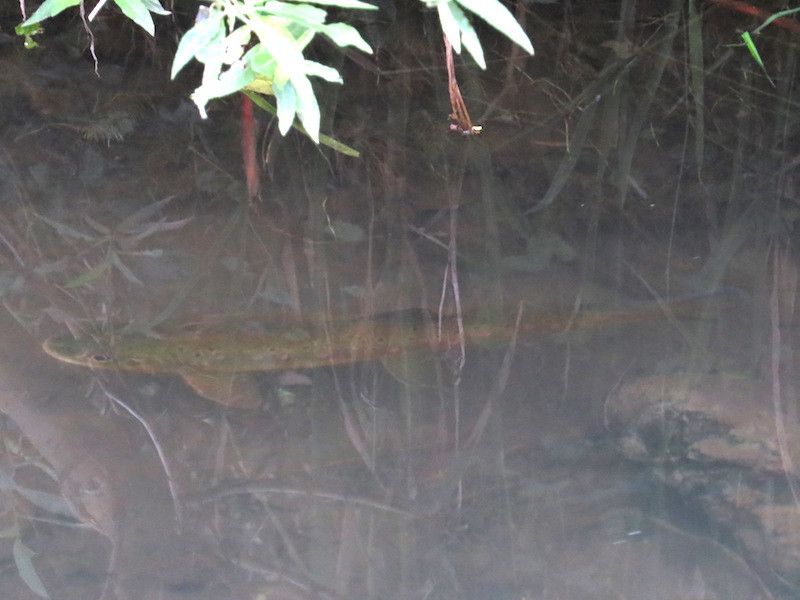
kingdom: Animalia
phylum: Chordata
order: Salmoniformes
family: Salmonidae
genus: Salmo
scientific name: Salmo trutta
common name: Brown trout
